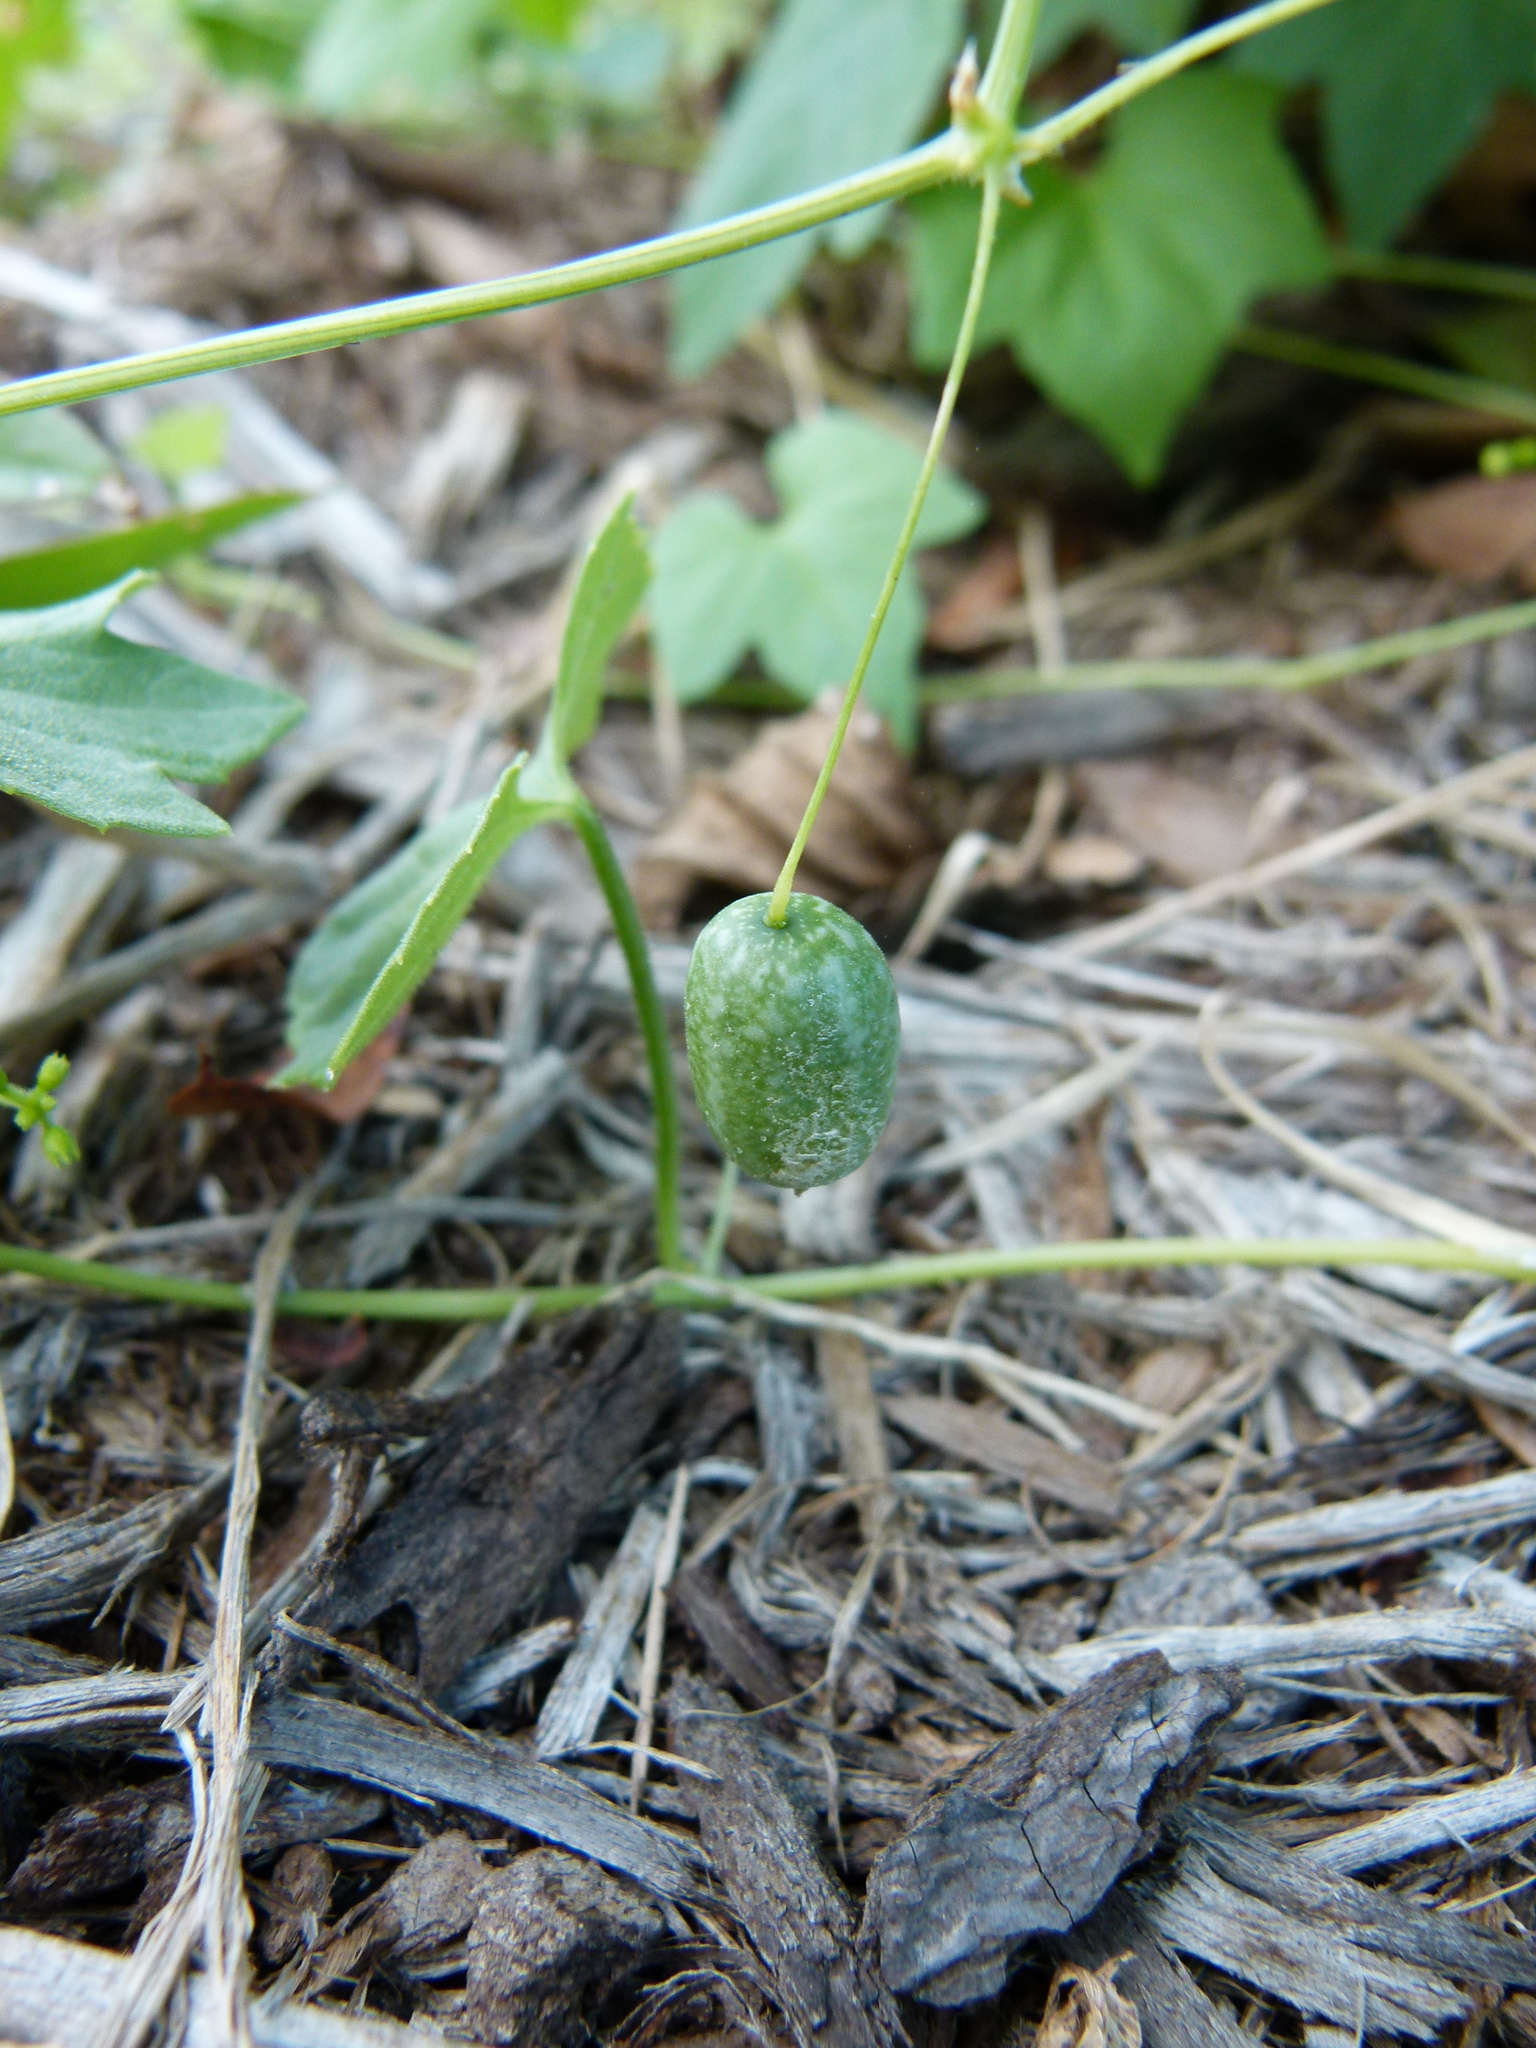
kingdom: Plantae
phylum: Tracheophyta
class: Magnoliopsida
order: Cucurbitales
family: Cucurbitaceae
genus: Melothria
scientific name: Melothria pendula
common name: Creeping-cucumber
